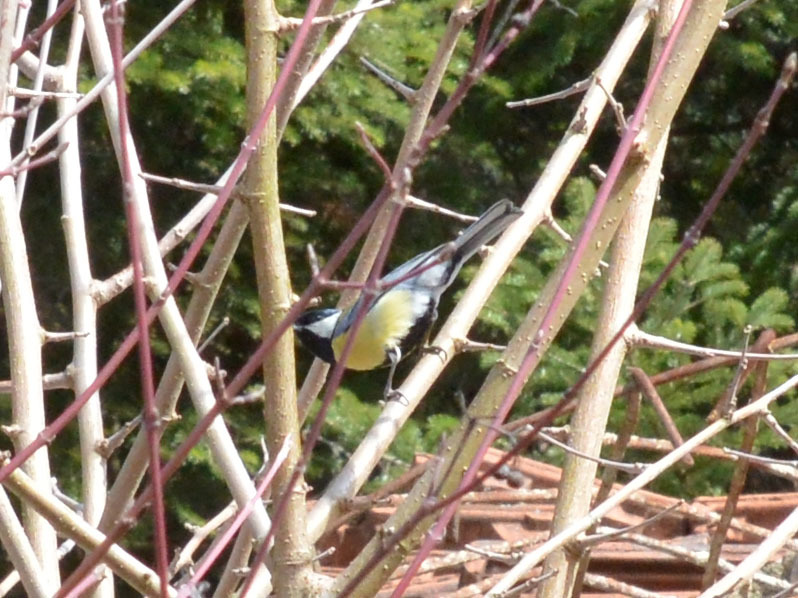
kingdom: Animalia
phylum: Chordata
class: Aves
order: Passeriformes
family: Paridae
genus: Parus
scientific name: Parus major
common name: Great tit
